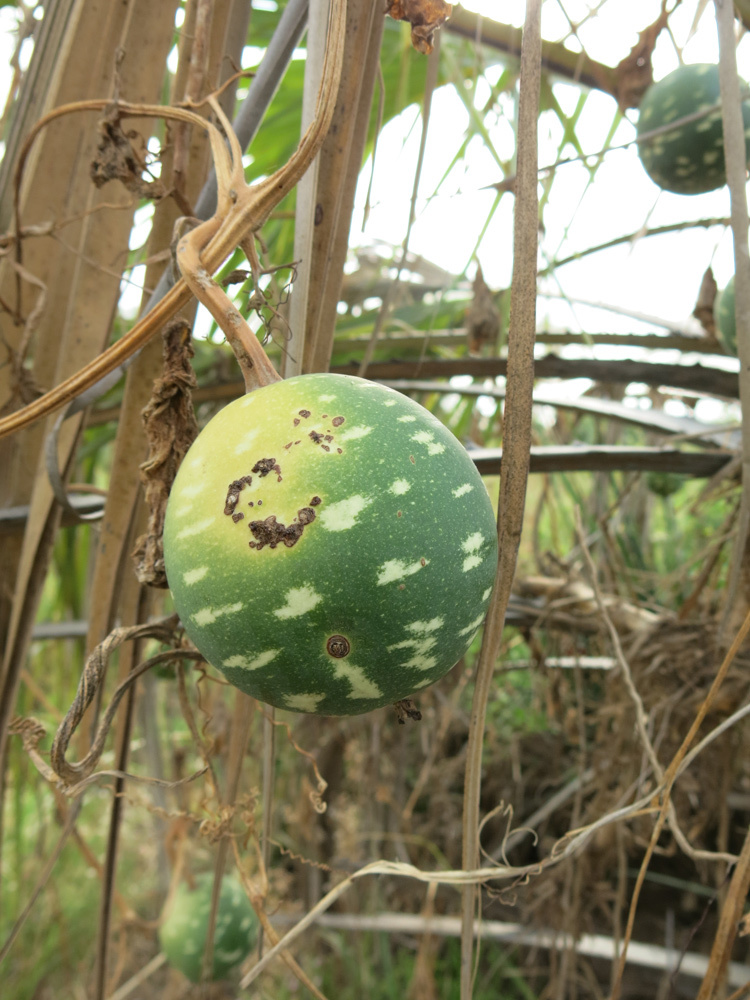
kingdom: Plantae
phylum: Tracheophyta
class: Magnoliopsida
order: Cucurbitales
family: Cucurbitaceae
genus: Lagenaria
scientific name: Lagenaria sphaerica
